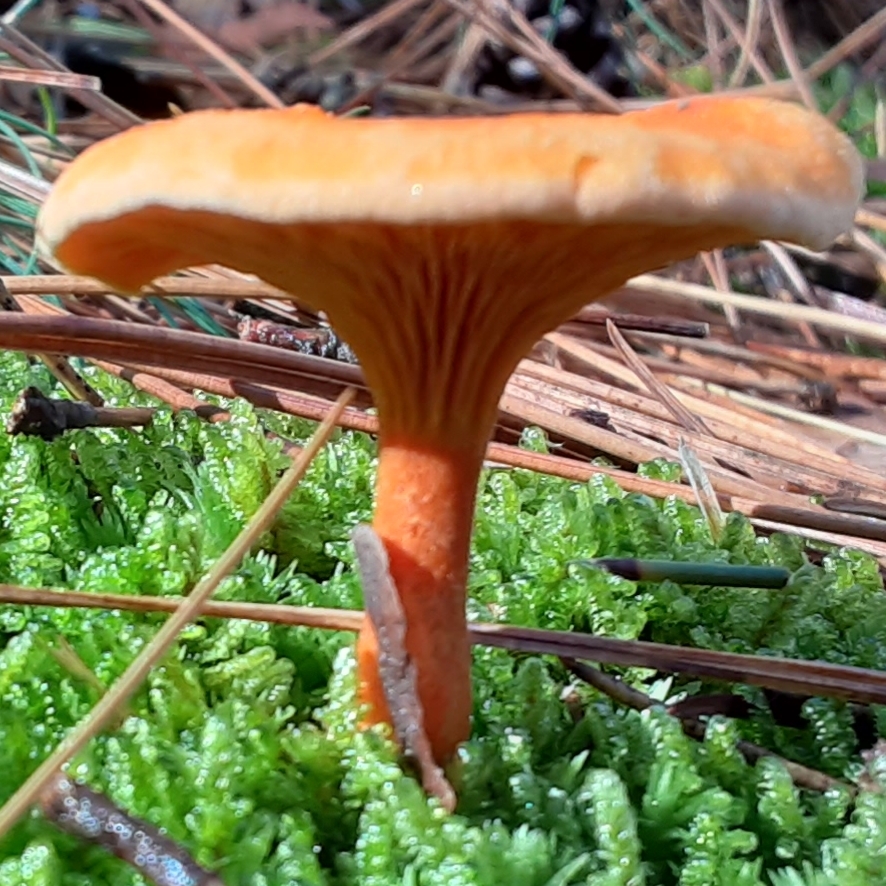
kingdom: Fungi
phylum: Basidiomycota
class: Agaricomycetes
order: Boletales
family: Hygrophoropsidaceae
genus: Hygrophoropsis
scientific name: Hygrophoropsis aurantiaca
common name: False chanterelle
